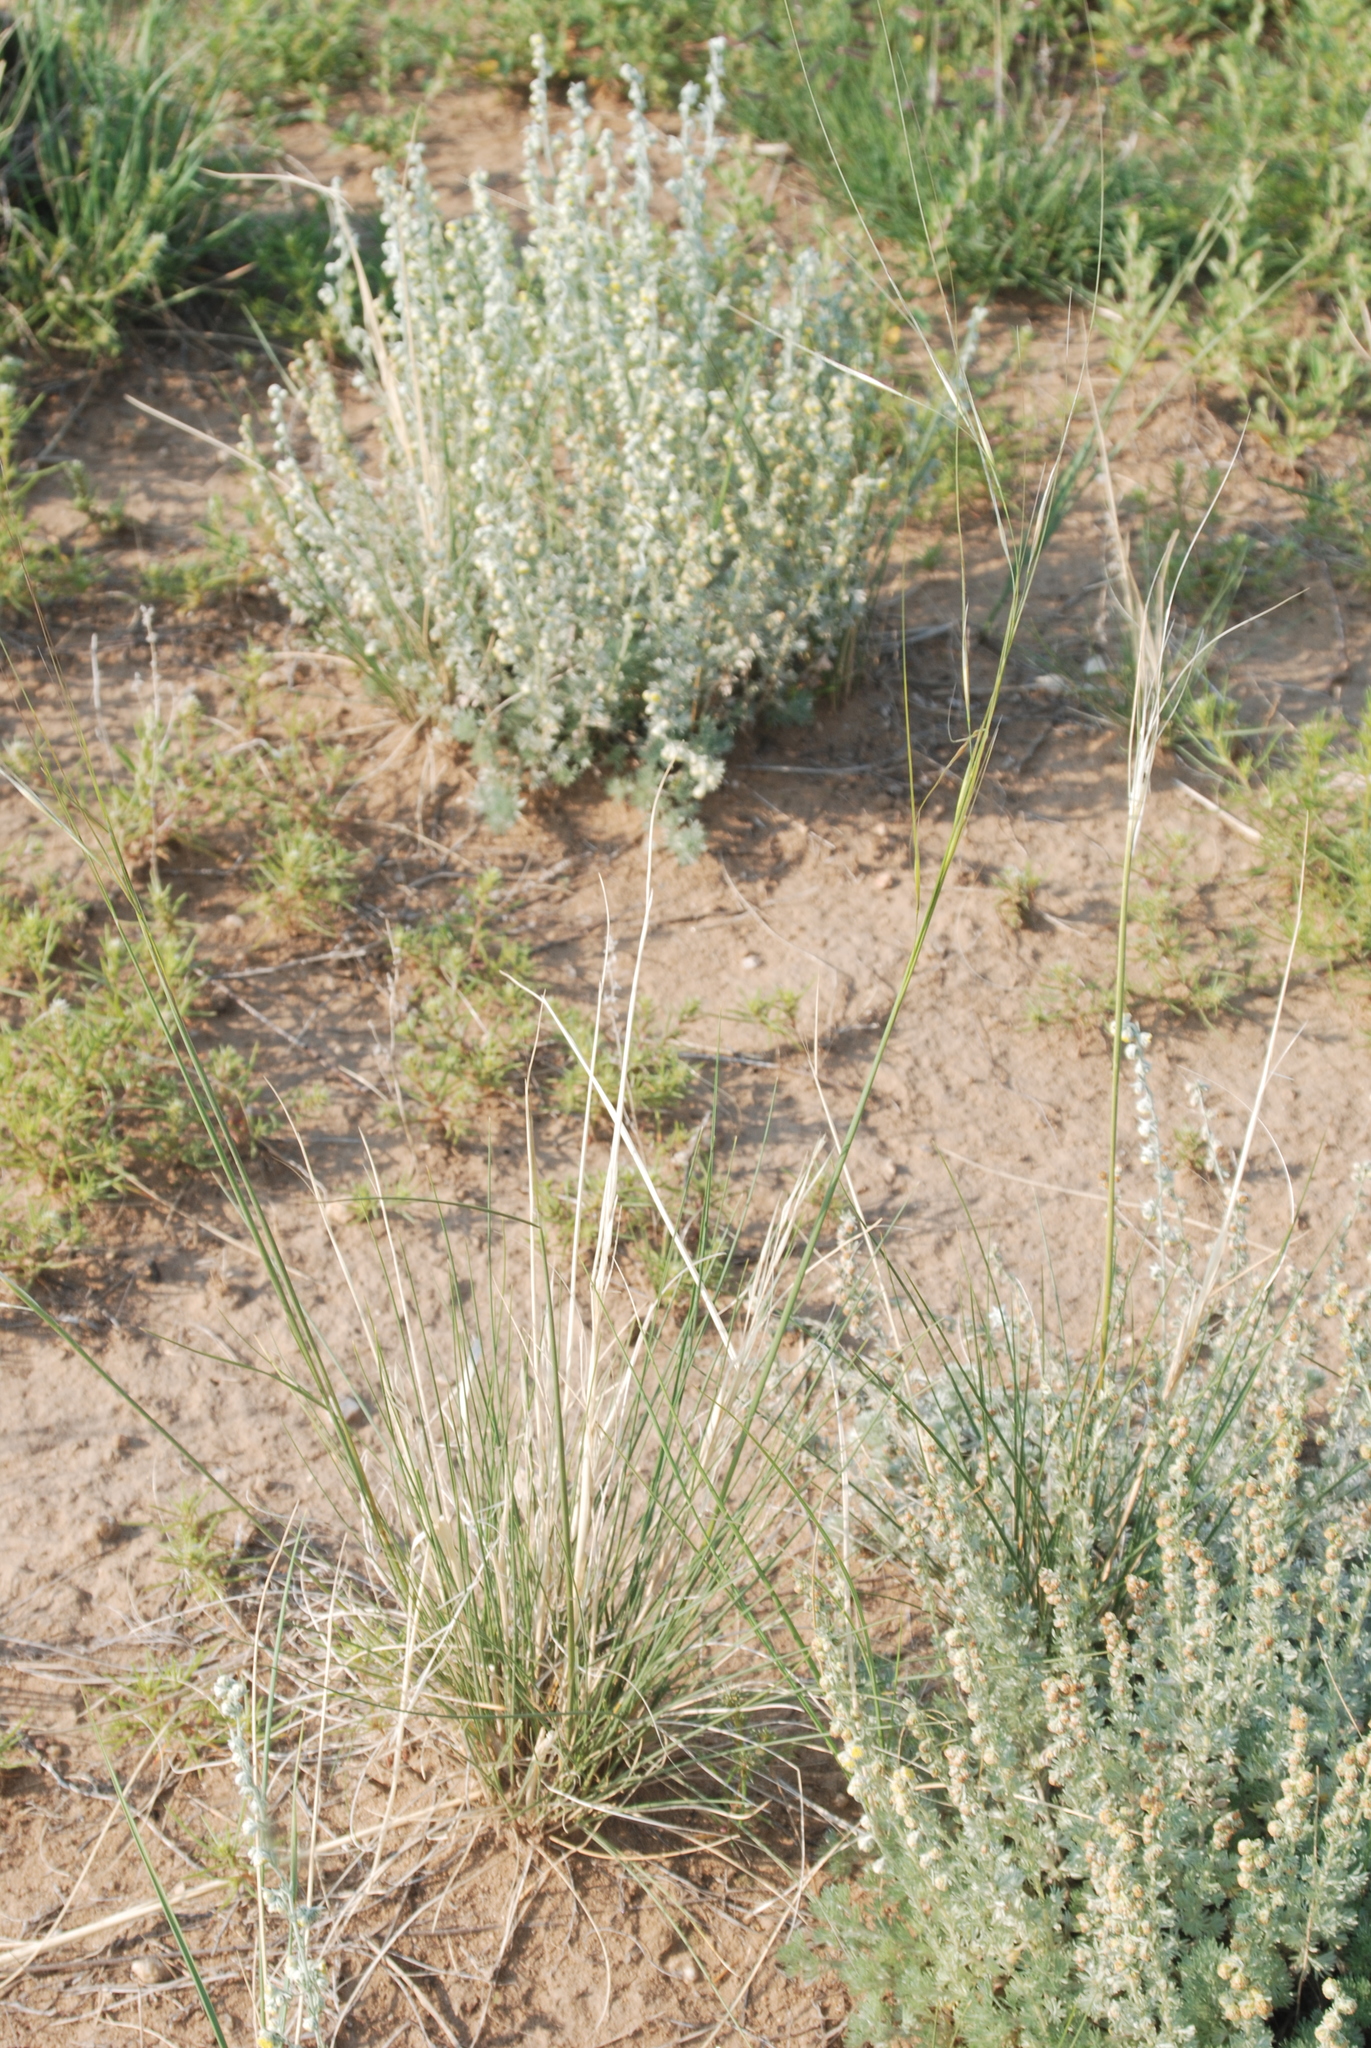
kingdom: Plantae
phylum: Tracheophyta
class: Liliopsida
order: Poales
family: Poaceae
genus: Hesperostipa
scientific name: Hesperostipa comata
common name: Needle-and-thread grass
